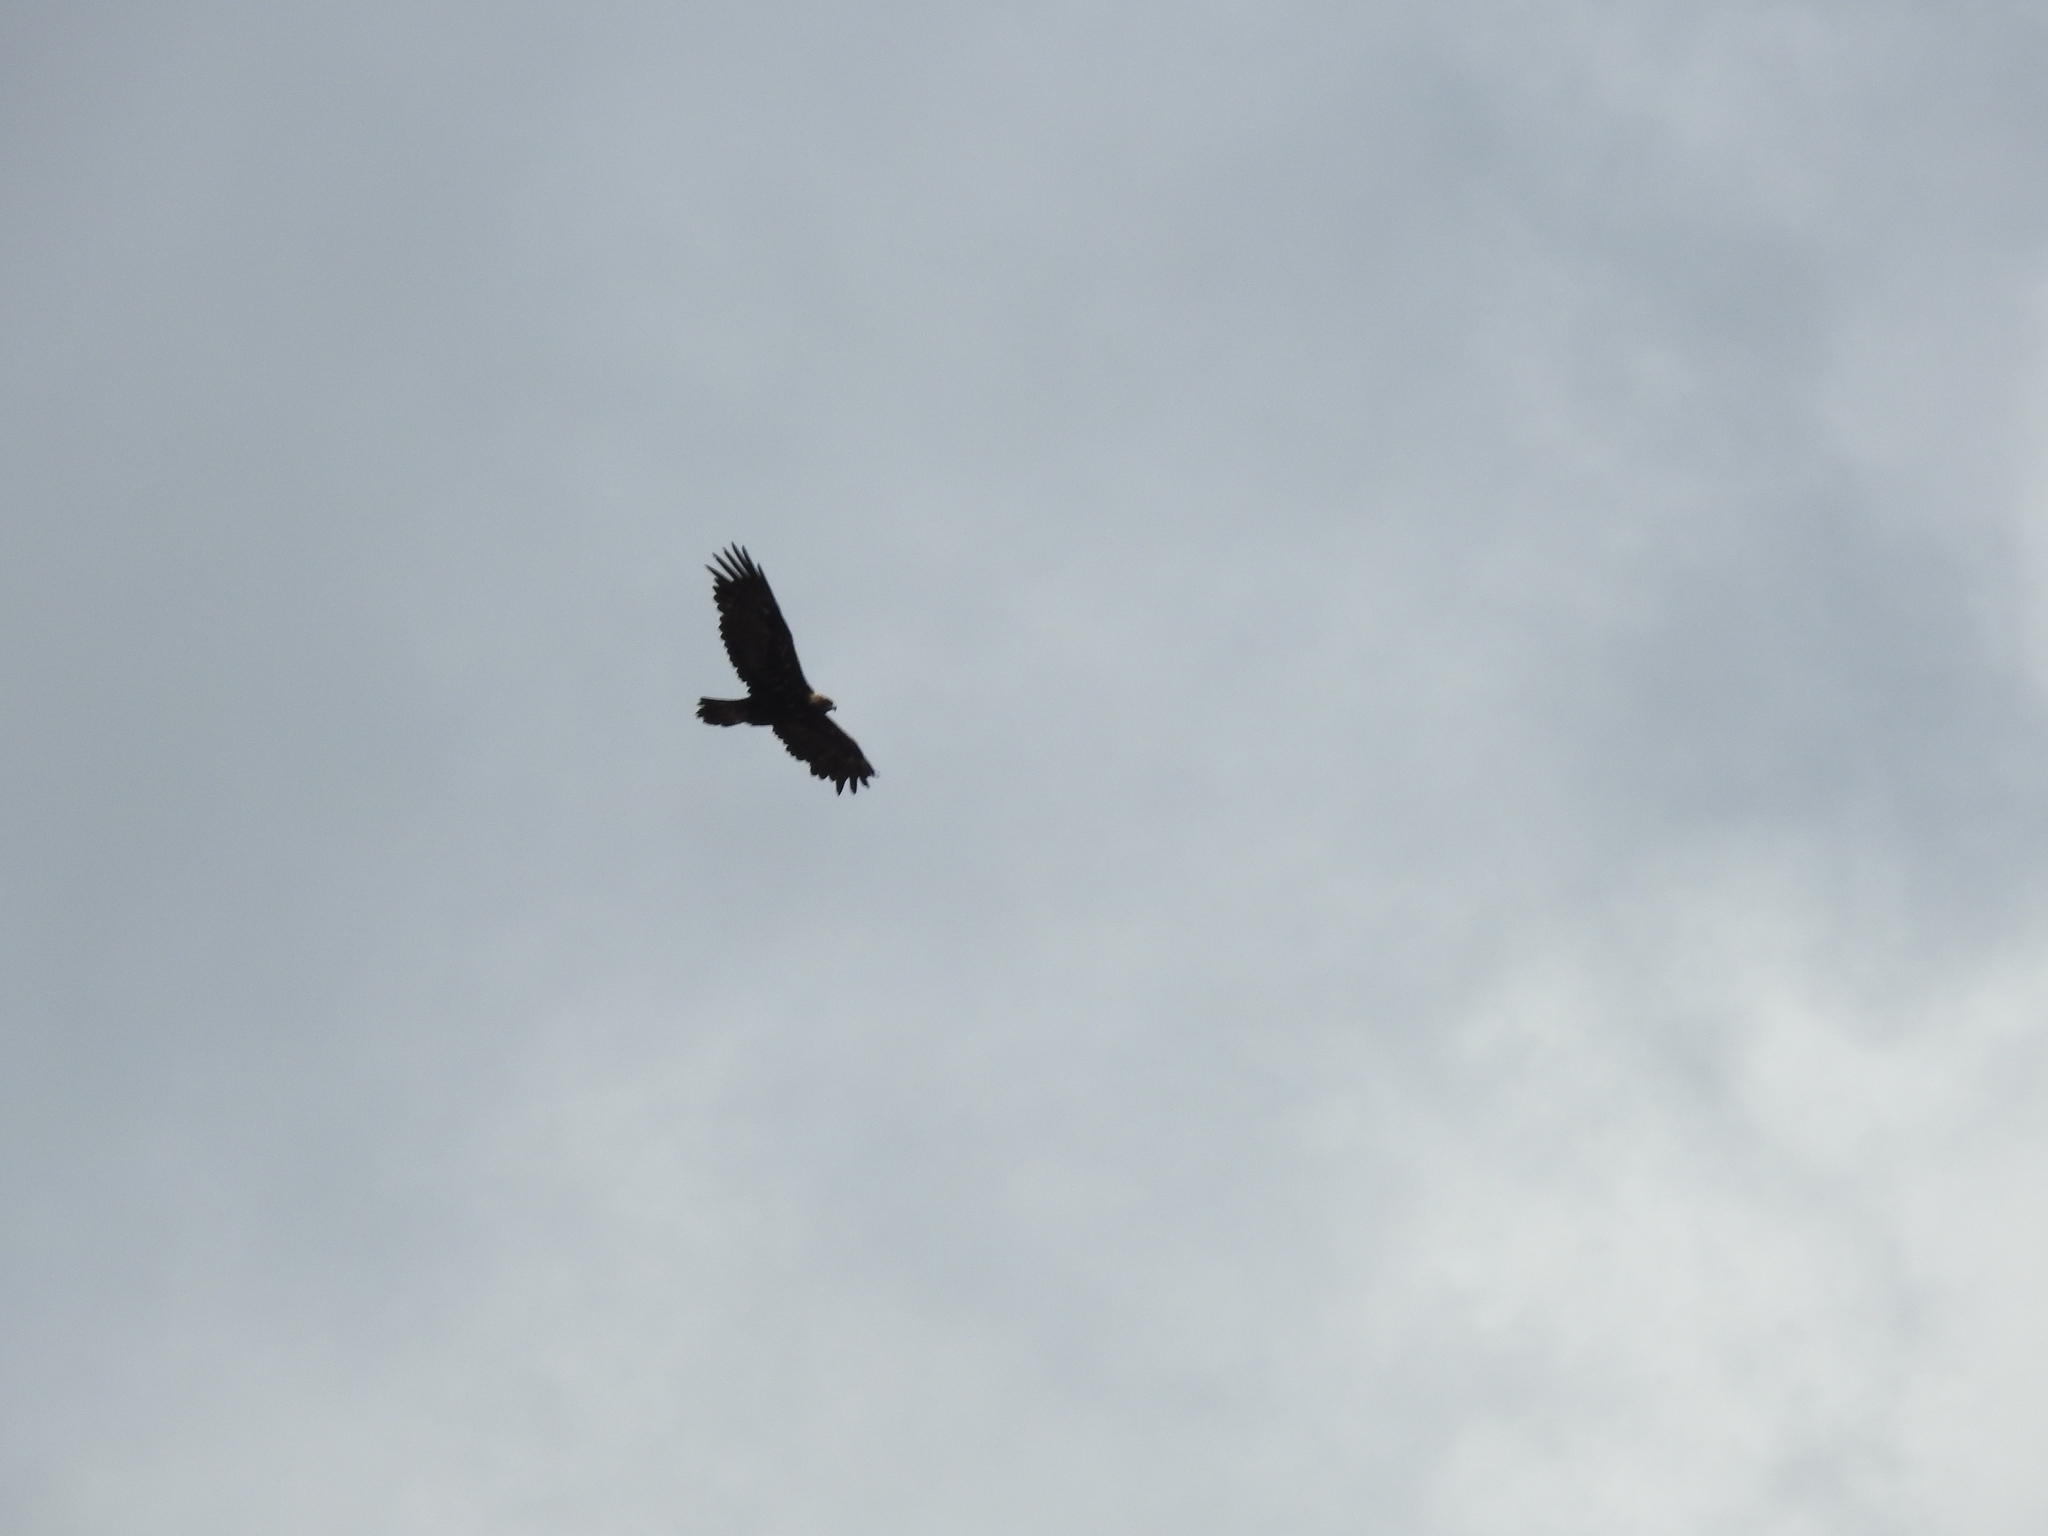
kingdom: Animalia
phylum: Chordata
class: Aves
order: Accipitriformes
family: Accipitridae
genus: Aquila
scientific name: Aquila chrysaetos
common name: Golden eagle
